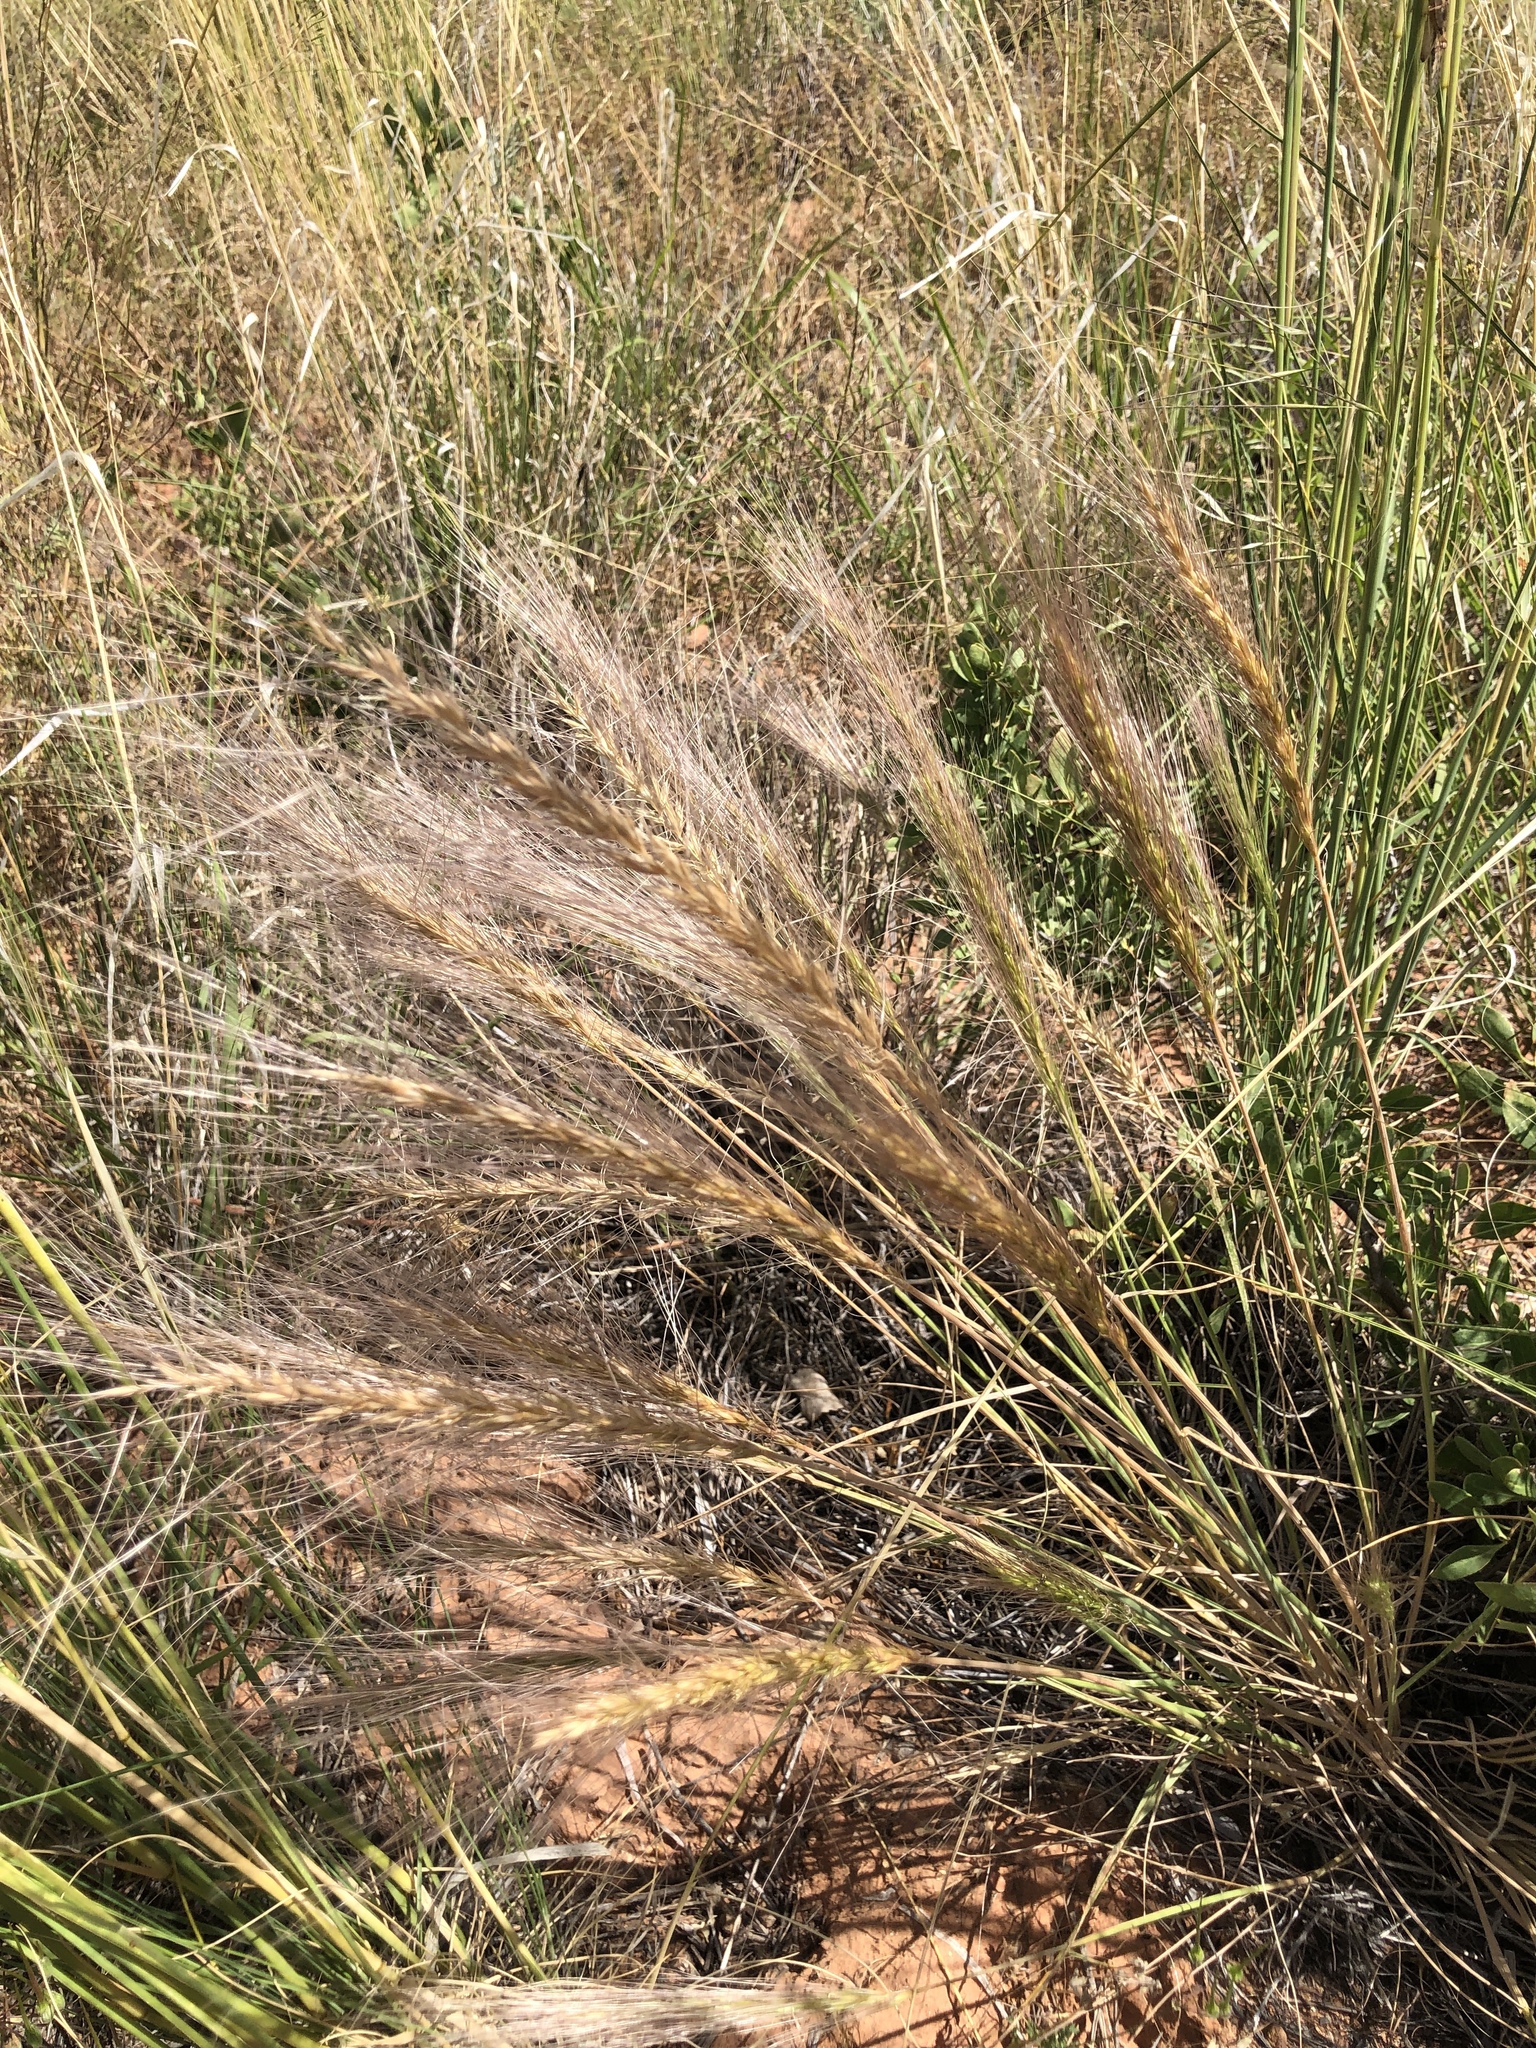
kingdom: Plantae
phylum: Tracheophyta
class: Liliopsida
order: Poales
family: Poaceae
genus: Elymus
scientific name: Elymus elymoides
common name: Bottlebrush squirreltail
